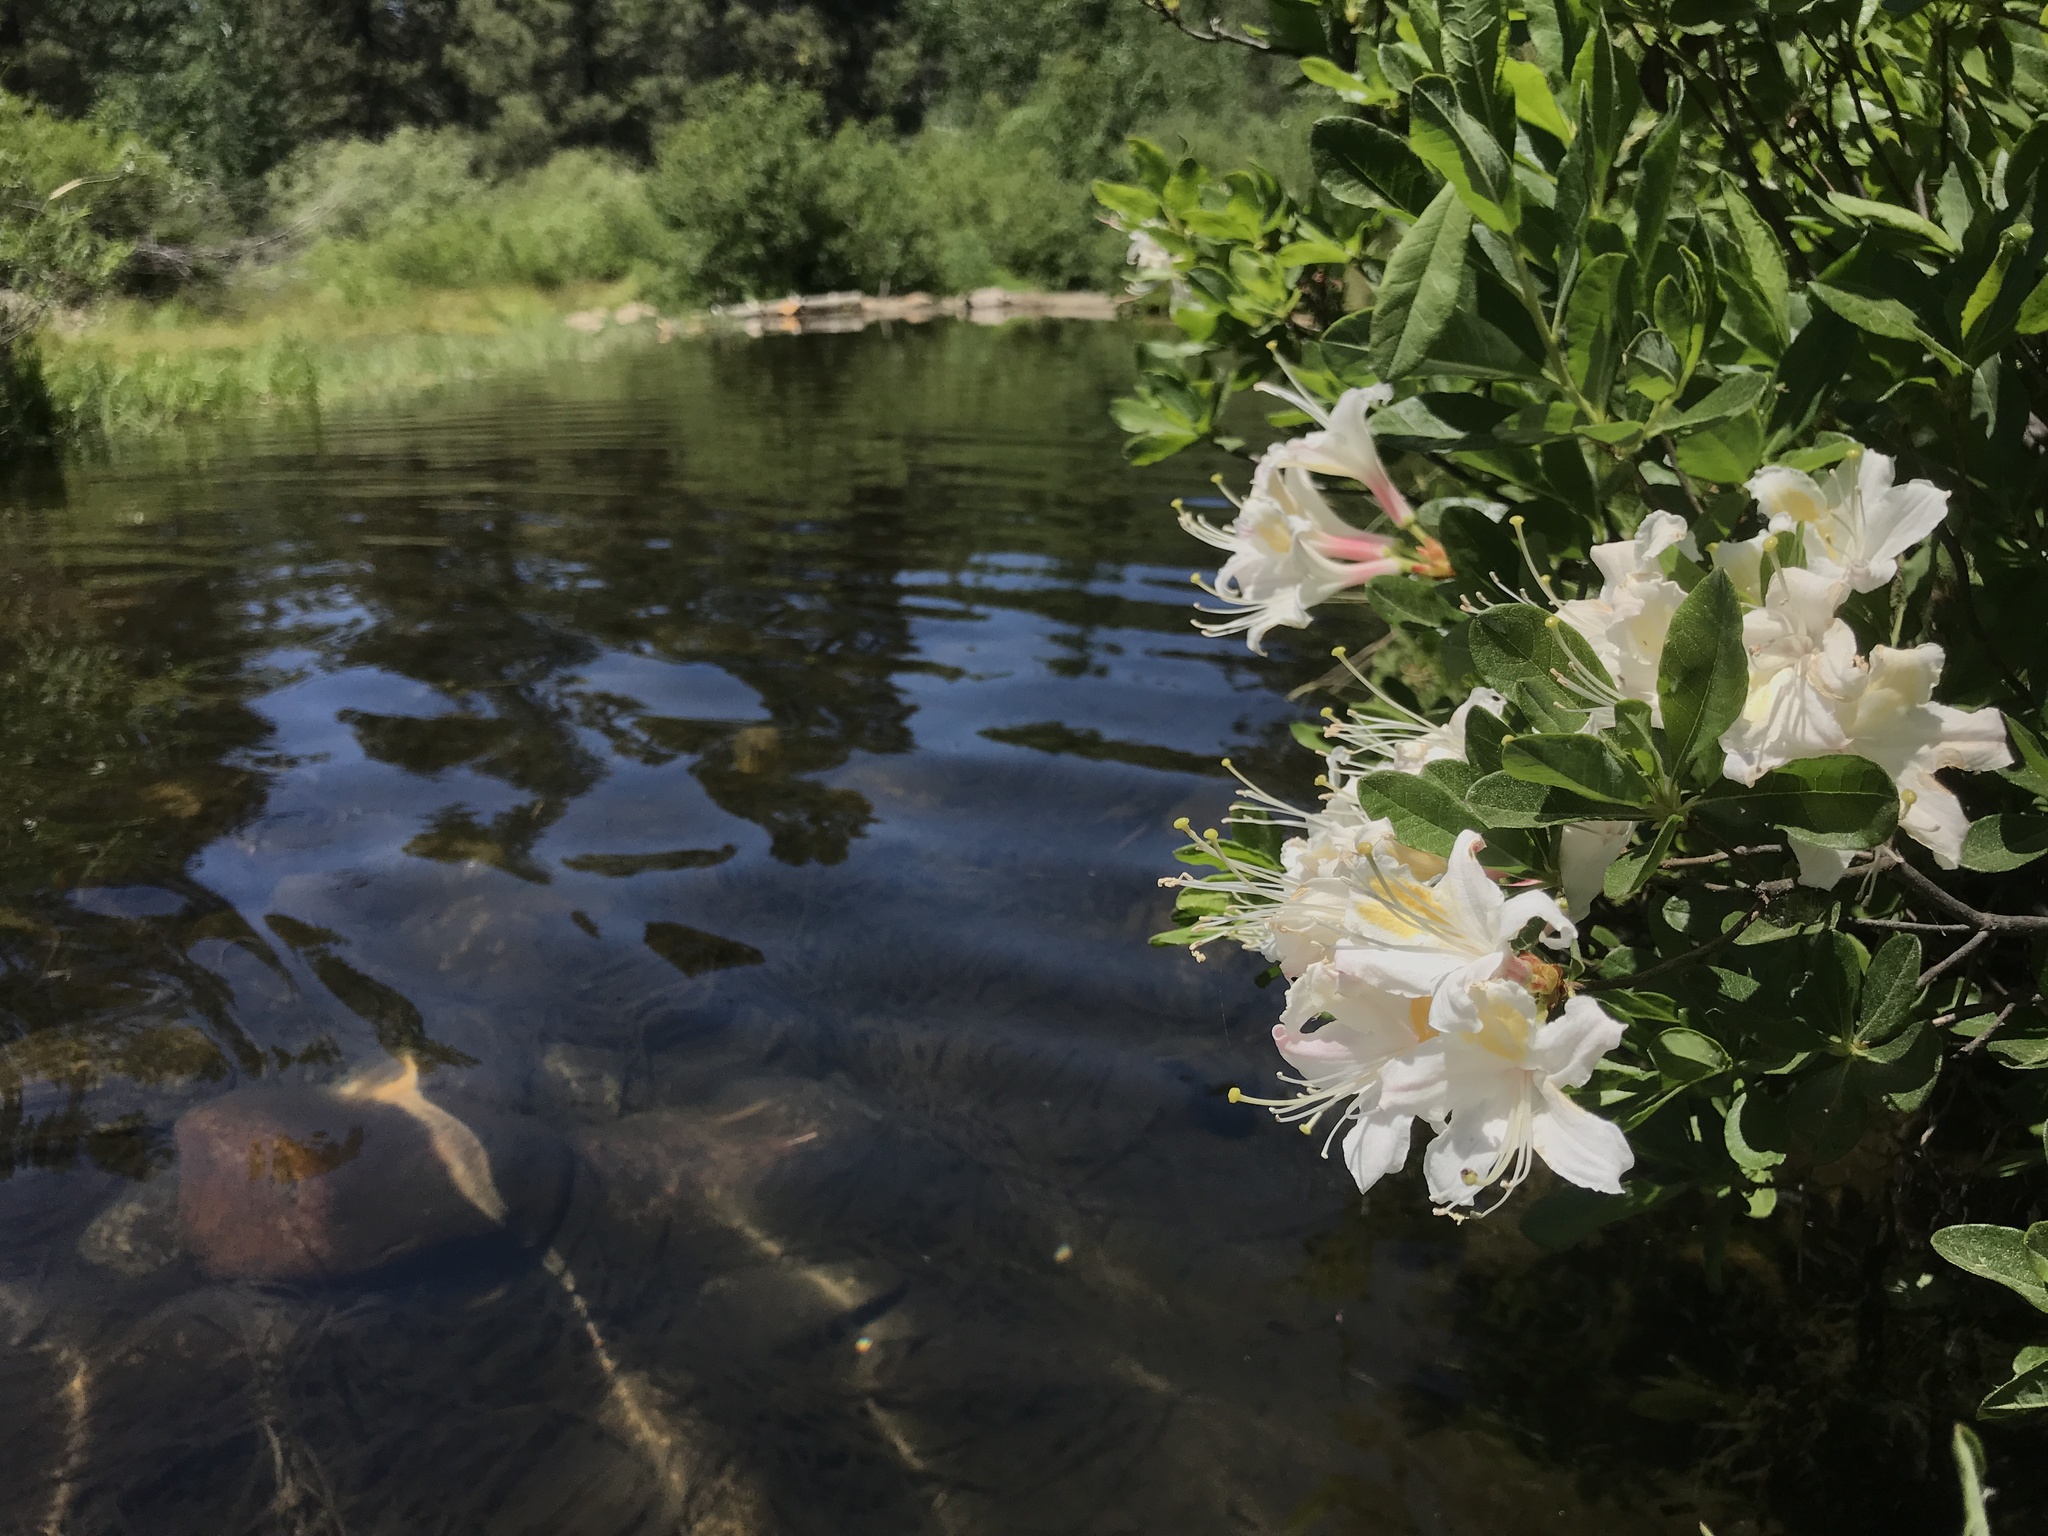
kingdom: Plantae
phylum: Tracheophyta
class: Magnoliopsida
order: Ericales
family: Ericaceae
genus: Rhododendron
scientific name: Rhododendron occidentale
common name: Western azalea
